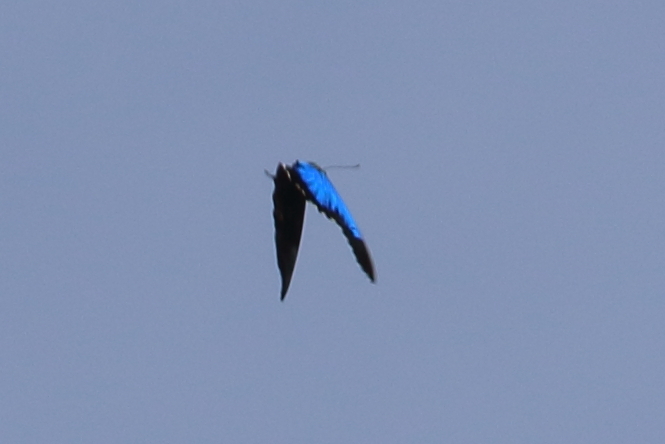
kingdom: Animalia
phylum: Arthropoda
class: Insecta
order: Lepidoptera
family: Papilionidae
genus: Papilio
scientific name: Papilio ulysses
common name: Blue emperor
